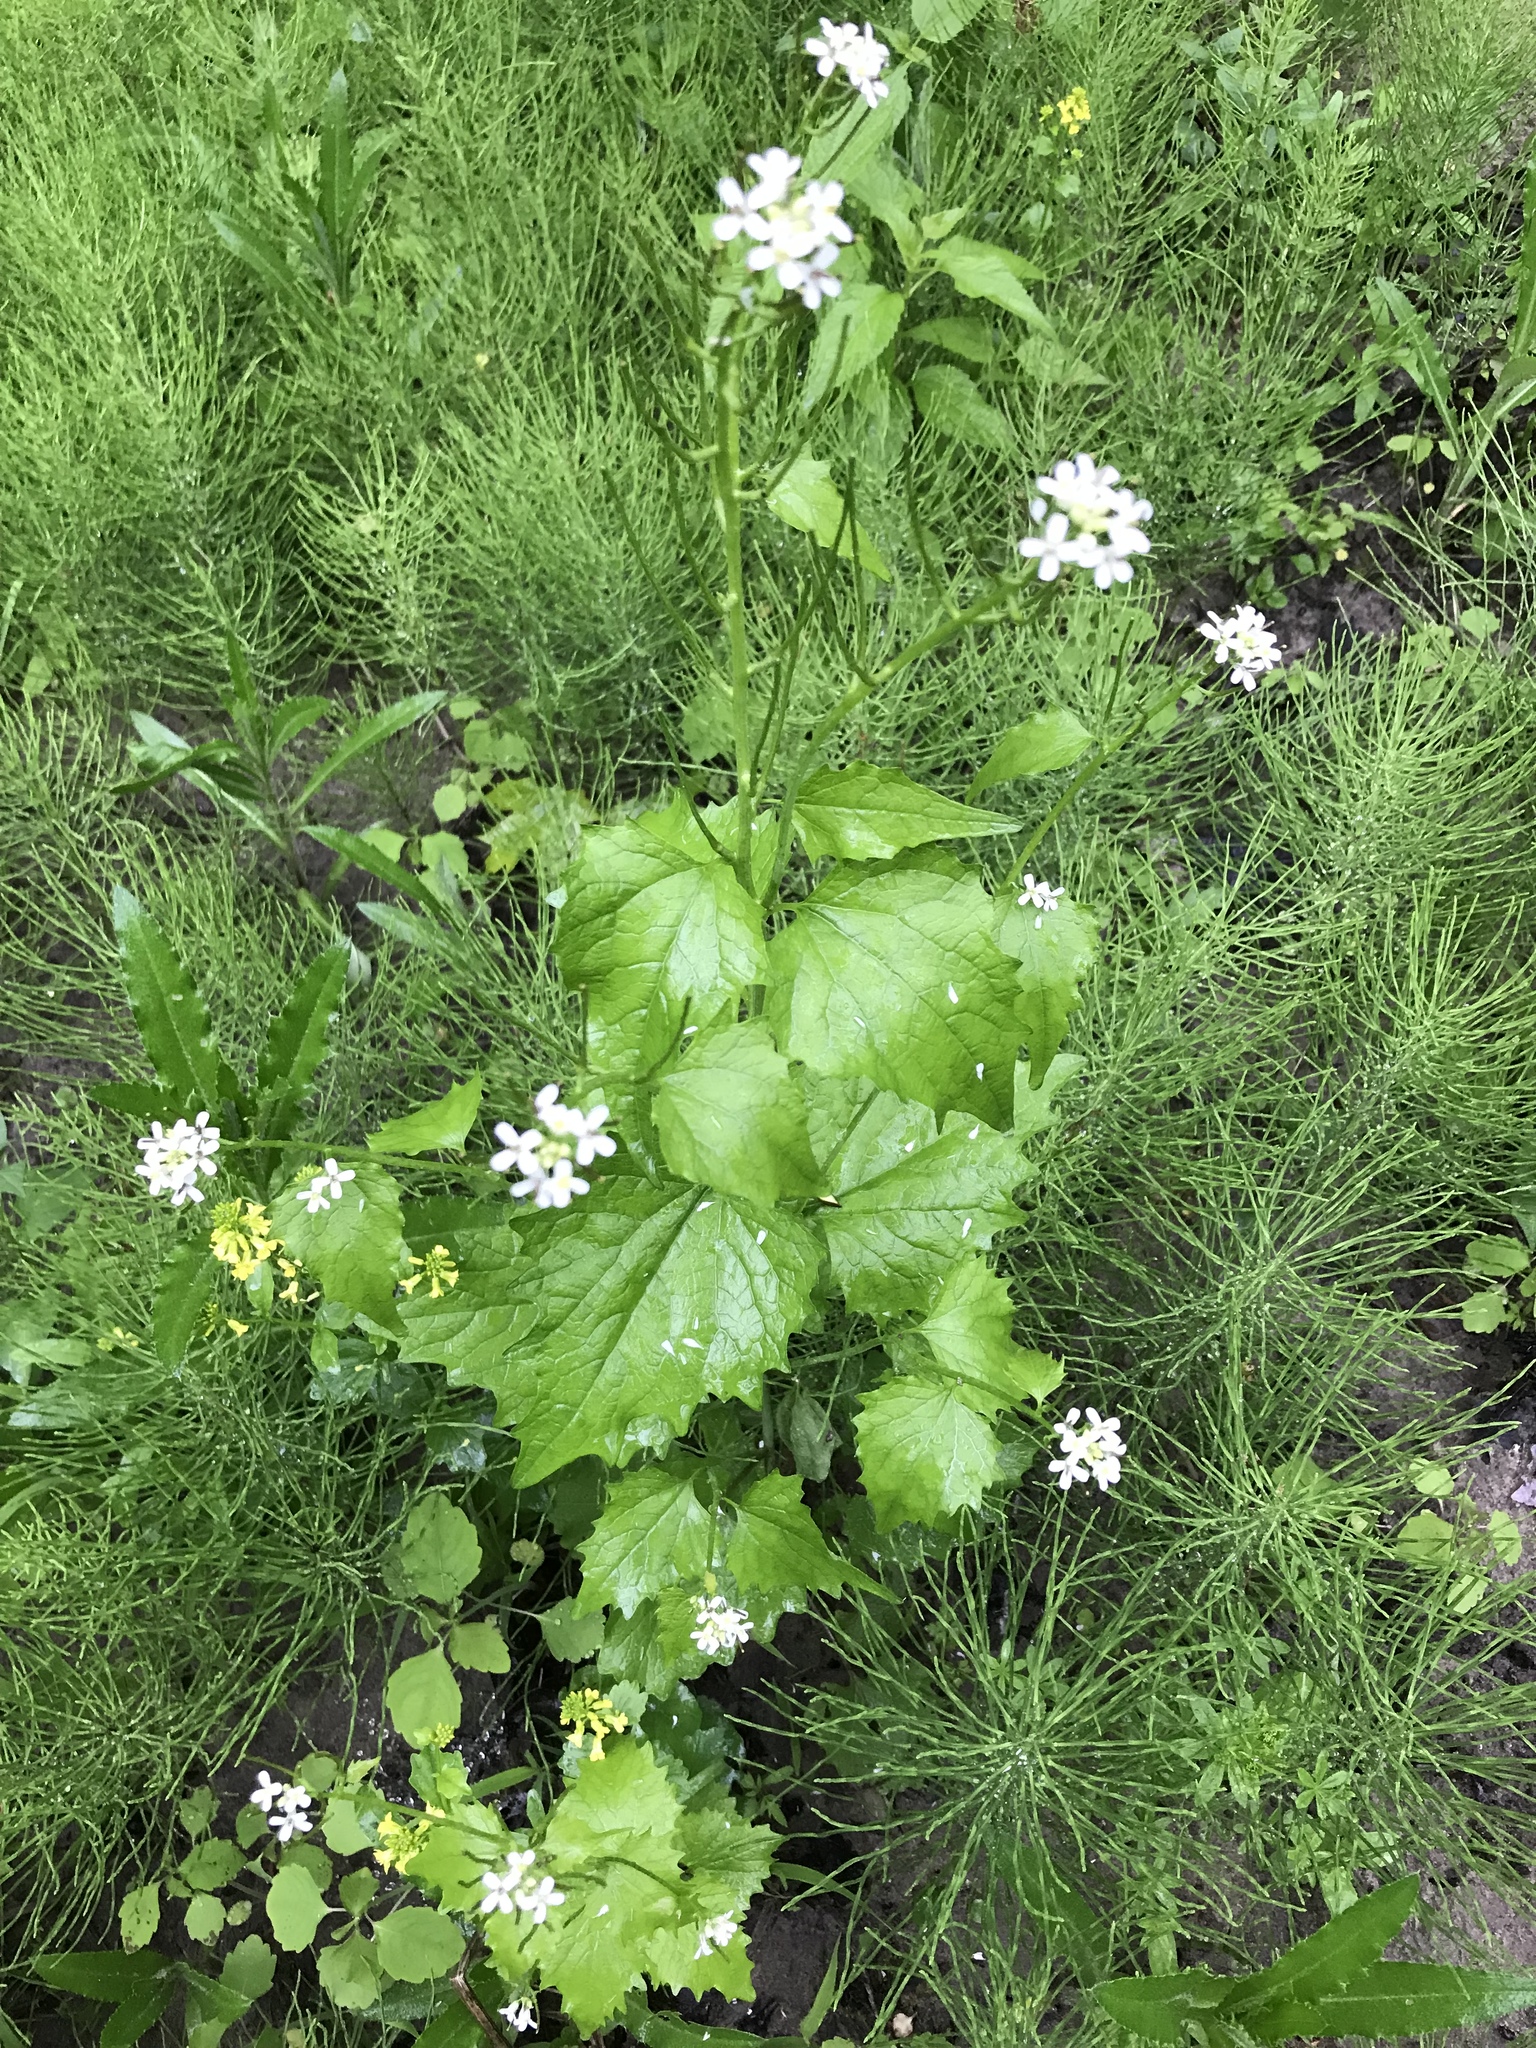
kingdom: Plantae
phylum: Tracheophyta
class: Magnoliopsida
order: Brassicales
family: Brassicaceae
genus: Alliaria
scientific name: Alliaria petiolata
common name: Garlic mustard
